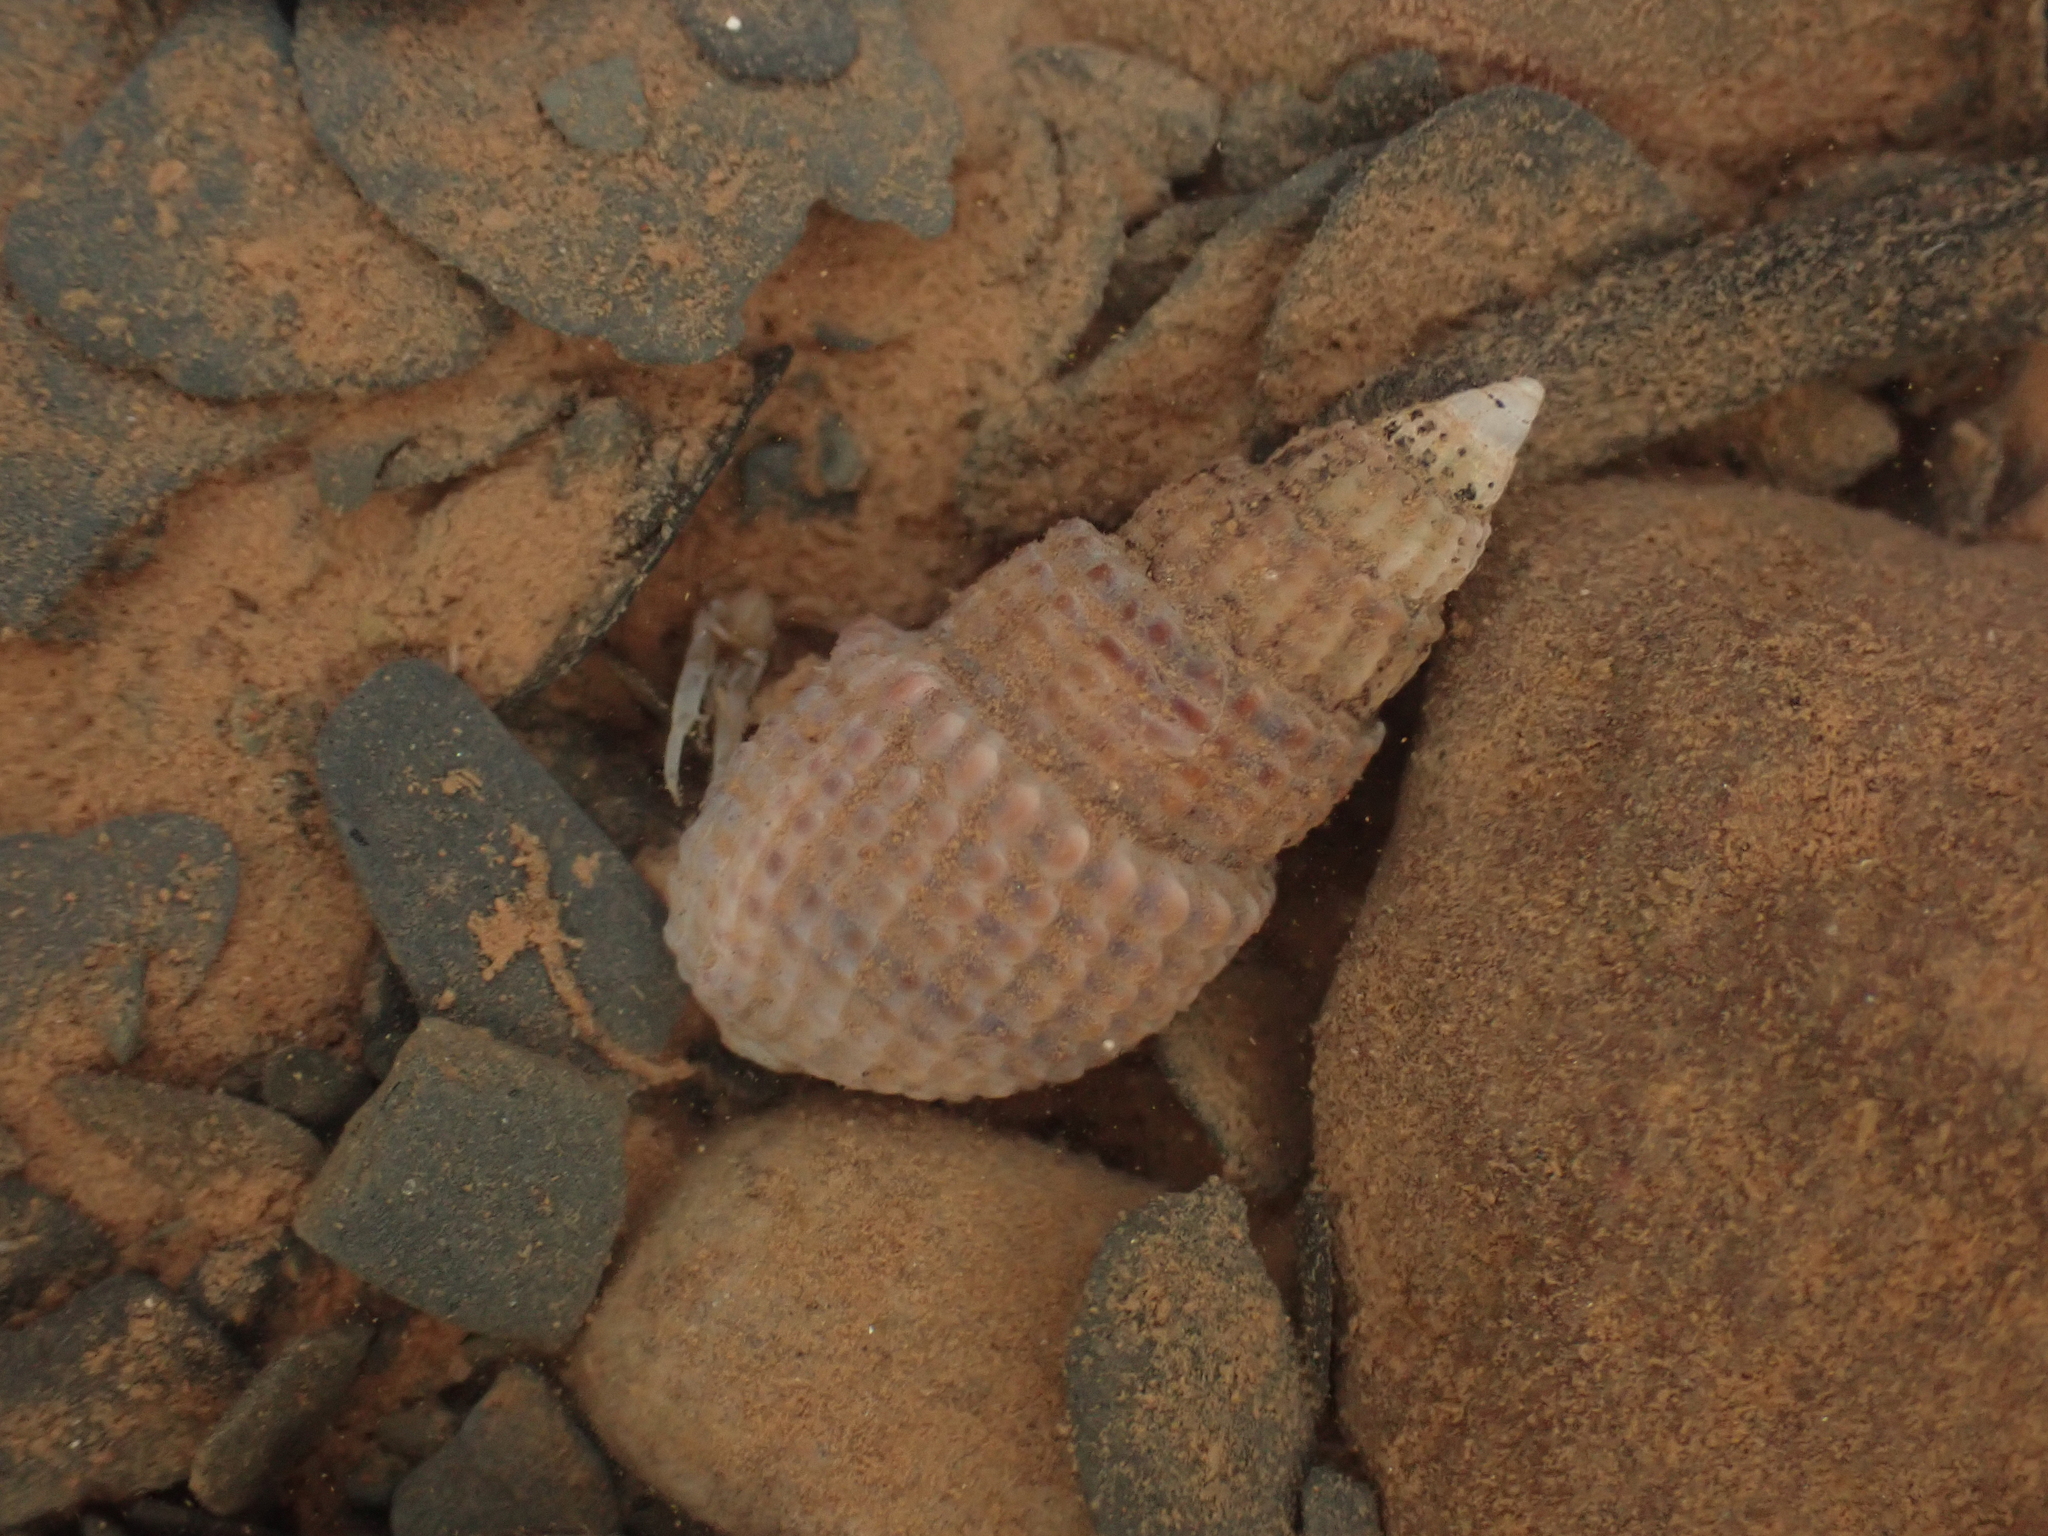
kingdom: Animalia
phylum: Mollusca
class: Gastropoda
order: Neogastropoda
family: Nassariidae
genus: Ilyanassa
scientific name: Ilyanassa trivittata
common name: Three-line mudsnail
